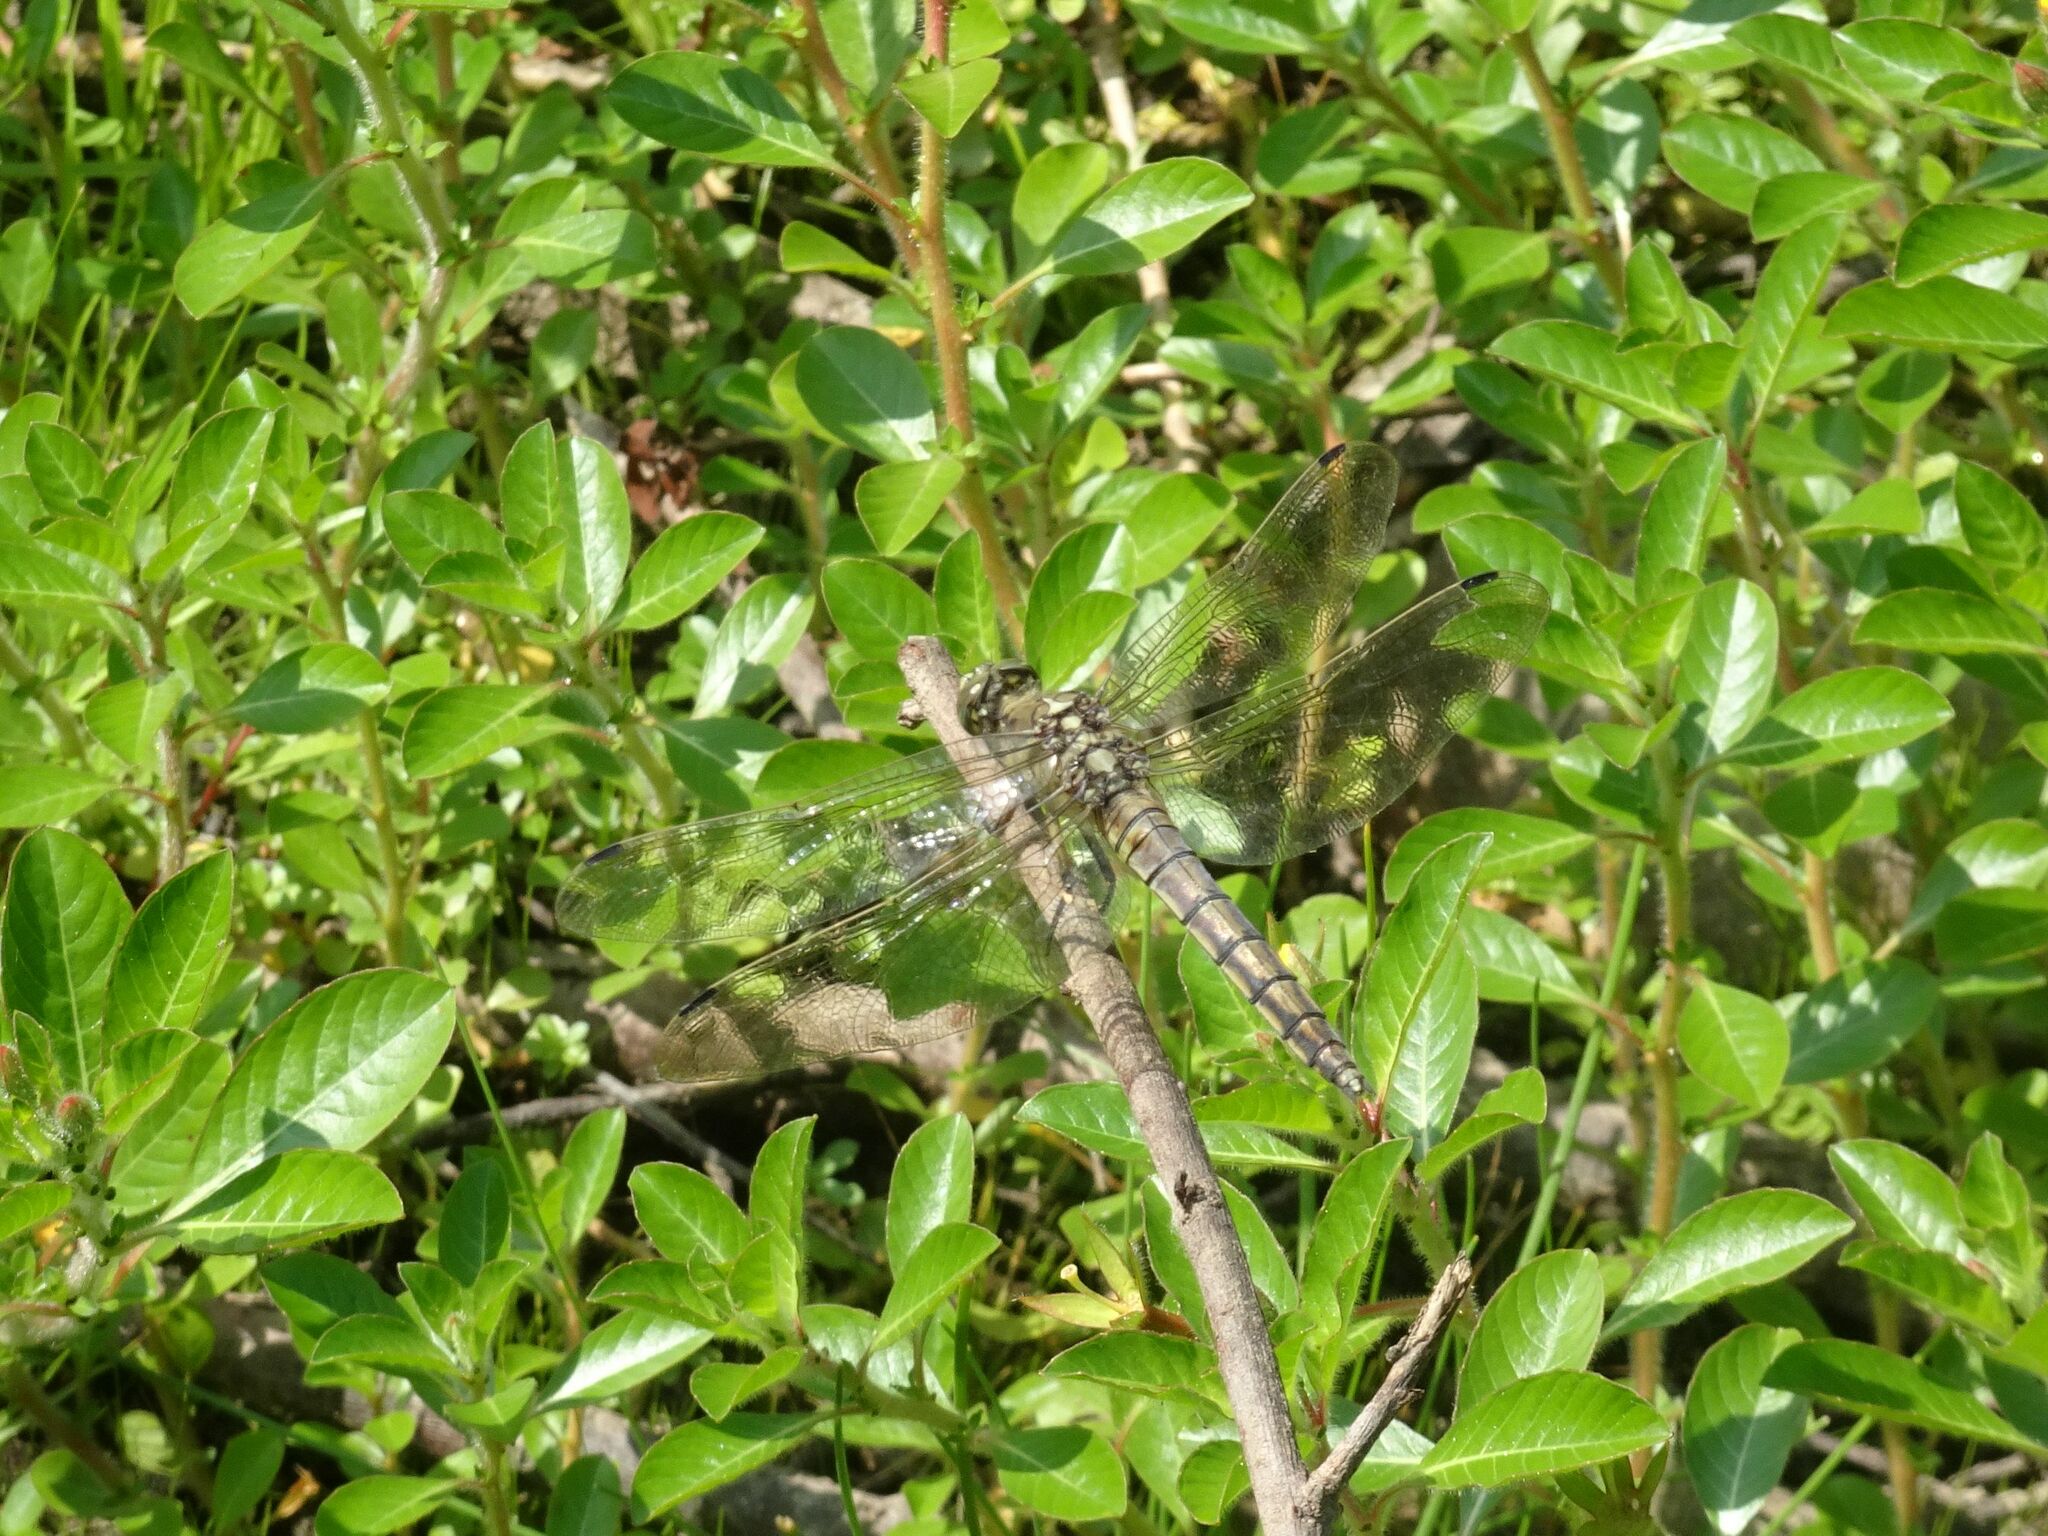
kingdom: Animalia
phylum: Arthropoda
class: Insecta
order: Odonata
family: Libellulidae
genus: Orthetrum
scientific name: Orthetrum cancellatum
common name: Black-tailed skimmer
